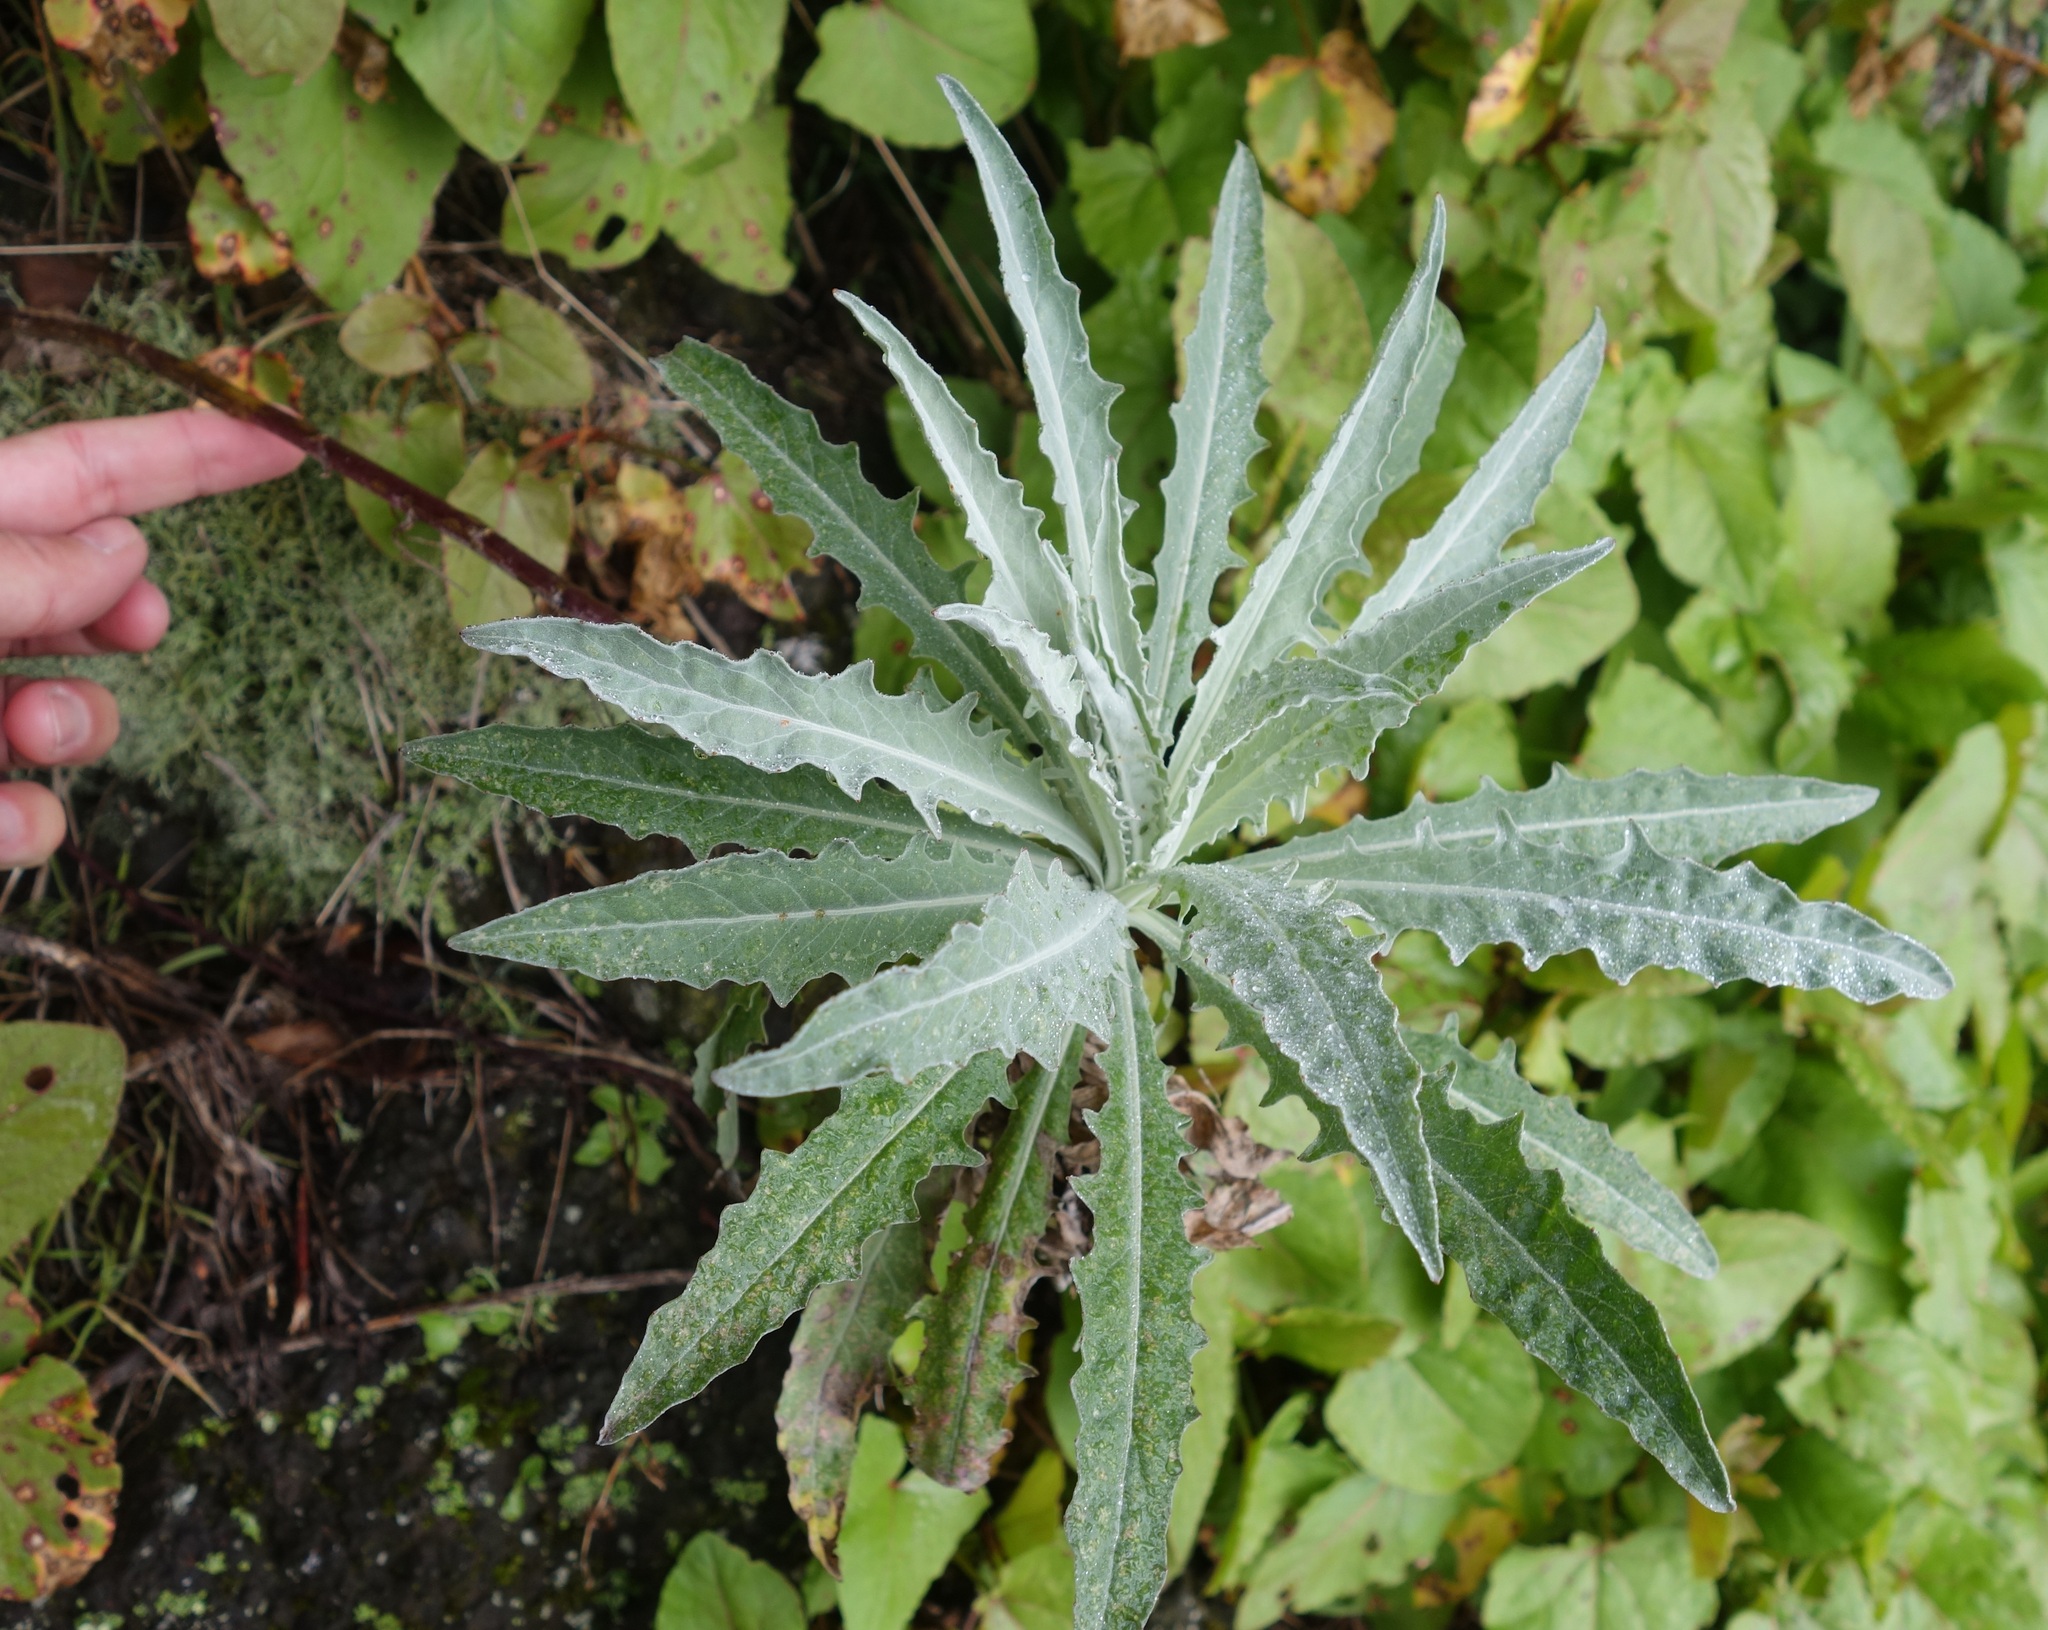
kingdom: Plantae
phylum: Tracheophyta
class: Magnoliopsida
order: Asterales
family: Asteraceae
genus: Andryala
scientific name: Andryala glandulosa
